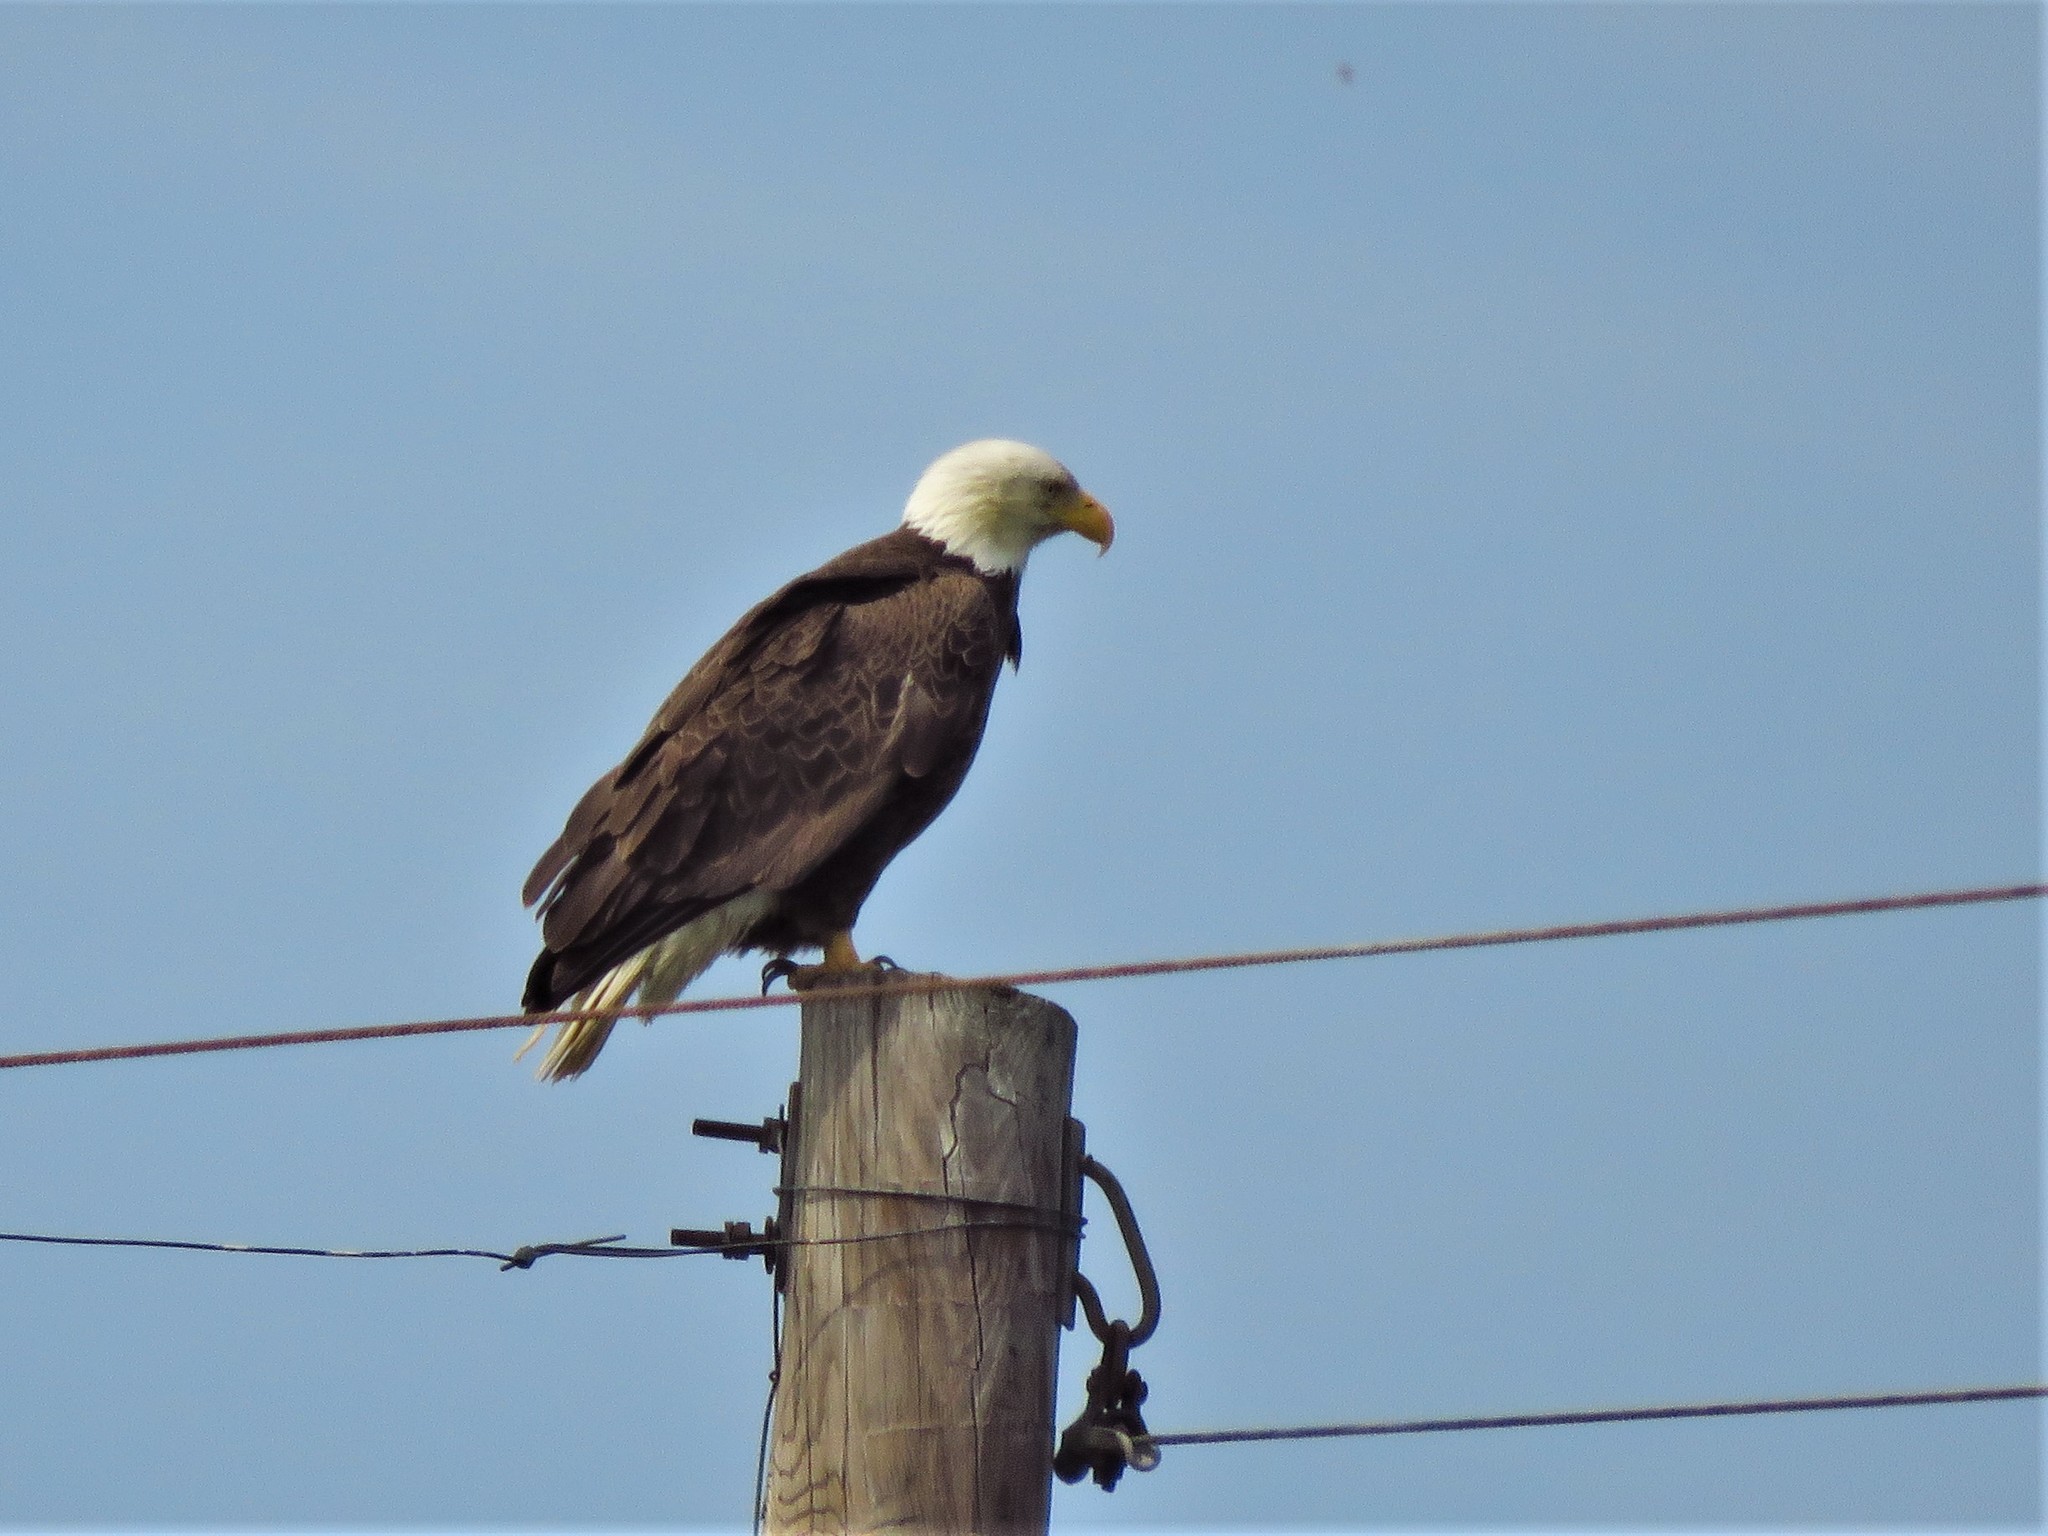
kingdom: Animalia
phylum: Chordata
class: Aves
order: Accipitriformes
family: Accipitridae
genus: Haliaeetus
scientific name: Haliaeetus leucocephalus
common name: Bald eagle
